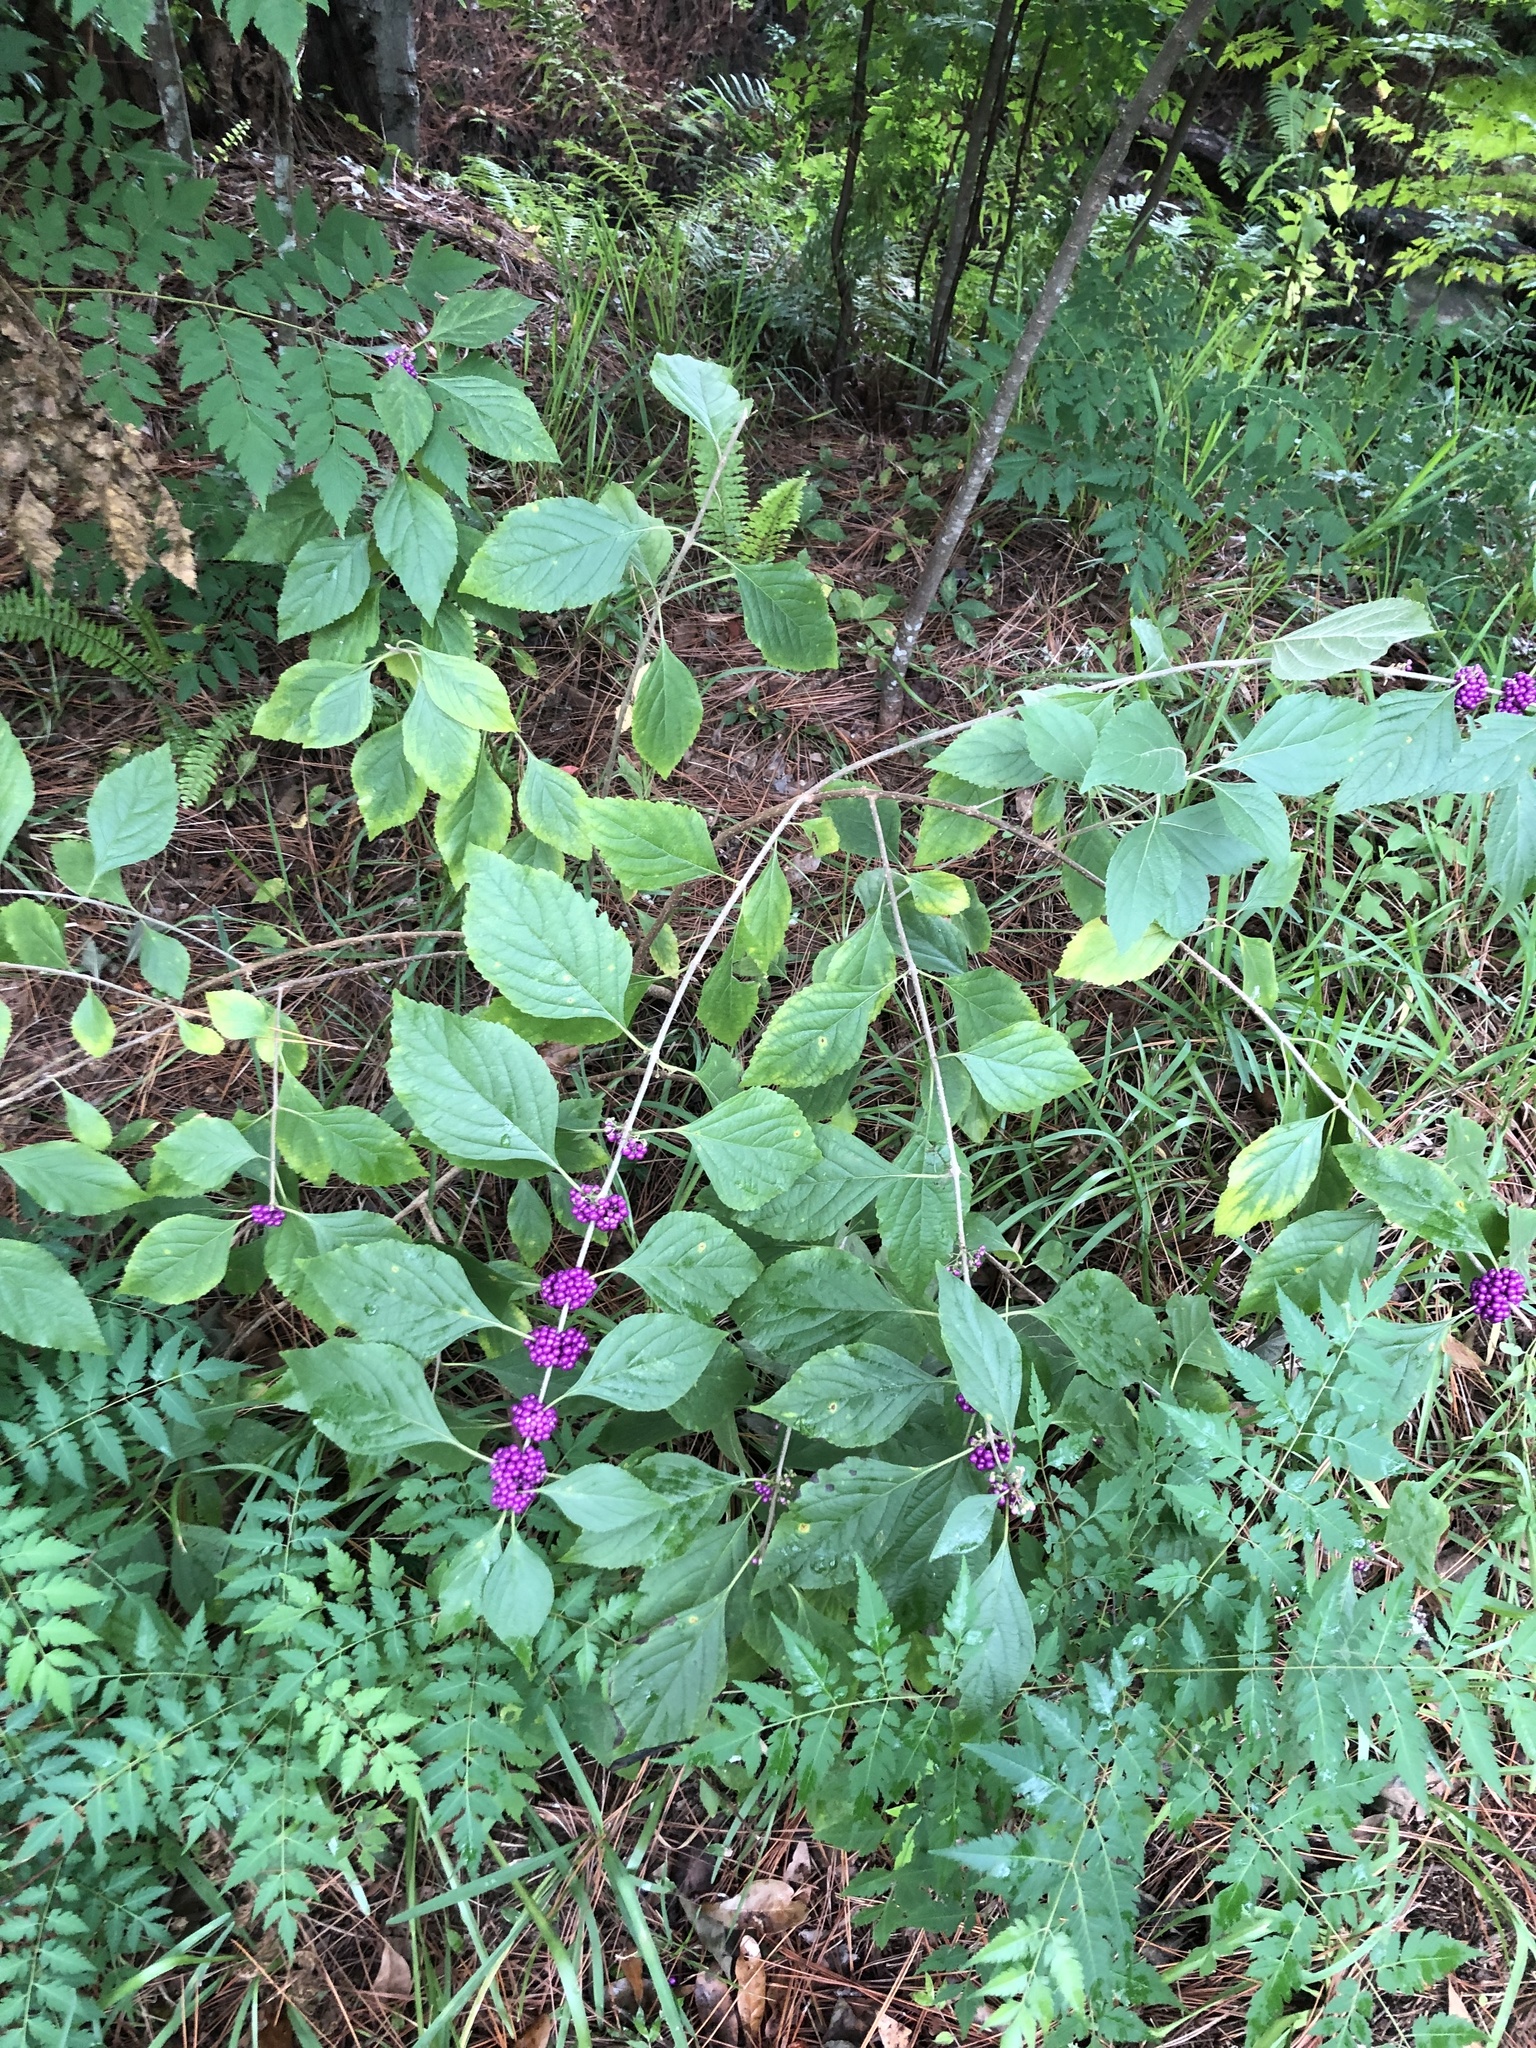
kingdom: Plantae
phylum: Tracheophyta
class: Magnoliopsida
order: Lamiales
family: Lamiaceae
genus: Callicarpa
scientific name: Callicarpa americana
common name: American beautyberry
